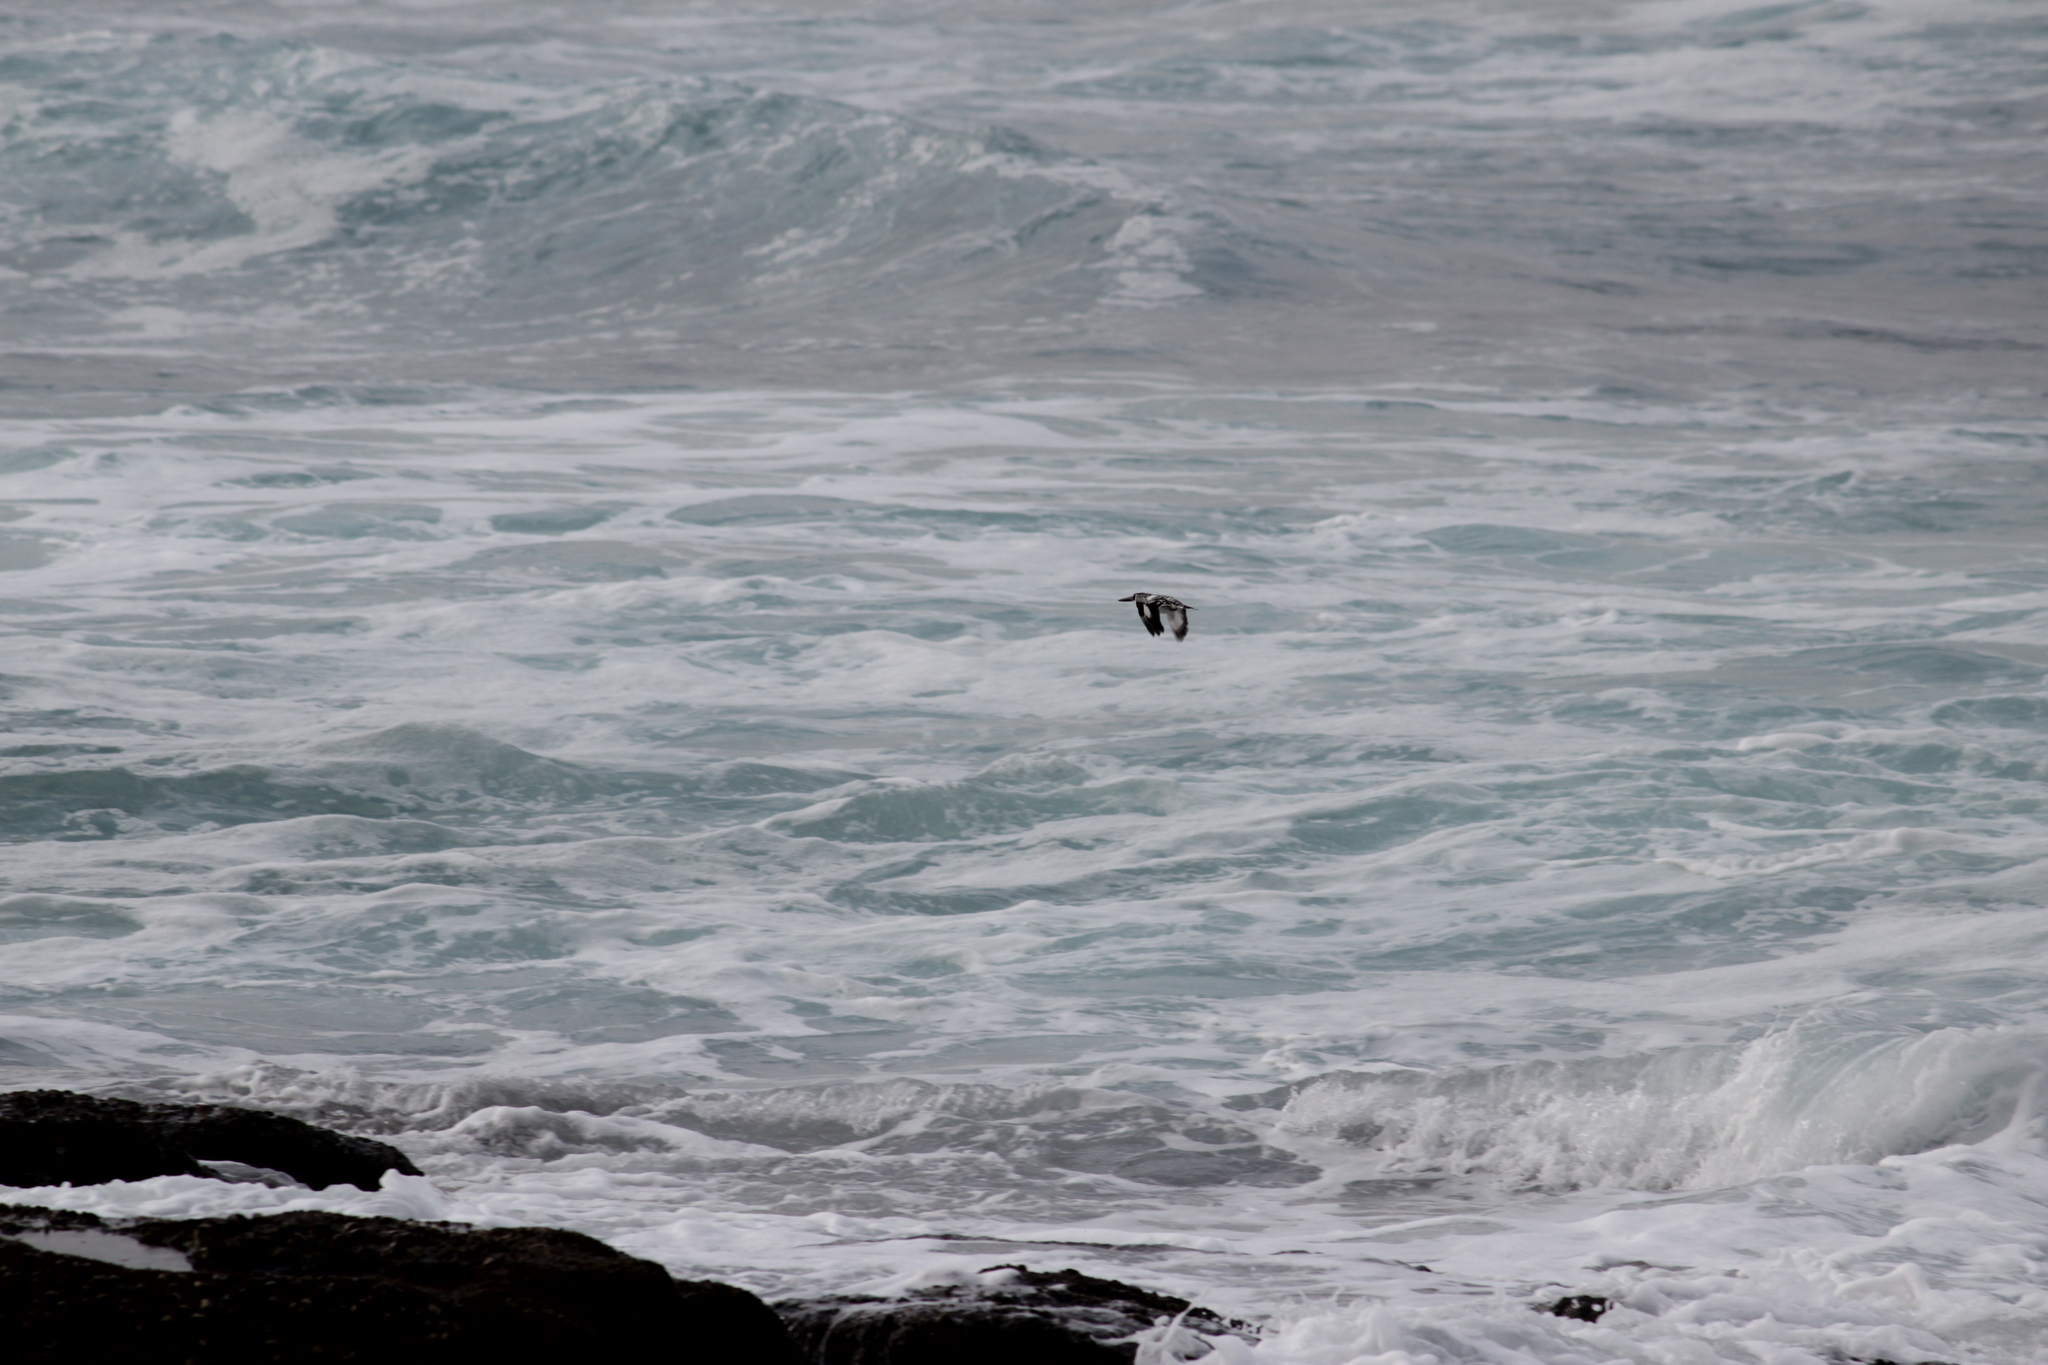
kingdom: Animalia
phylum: Chordata
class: Aves
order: Coraciiformes
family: Alcedinidae
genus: Ceryle
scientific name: Ceryle rudis
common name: Pied kingfisher
